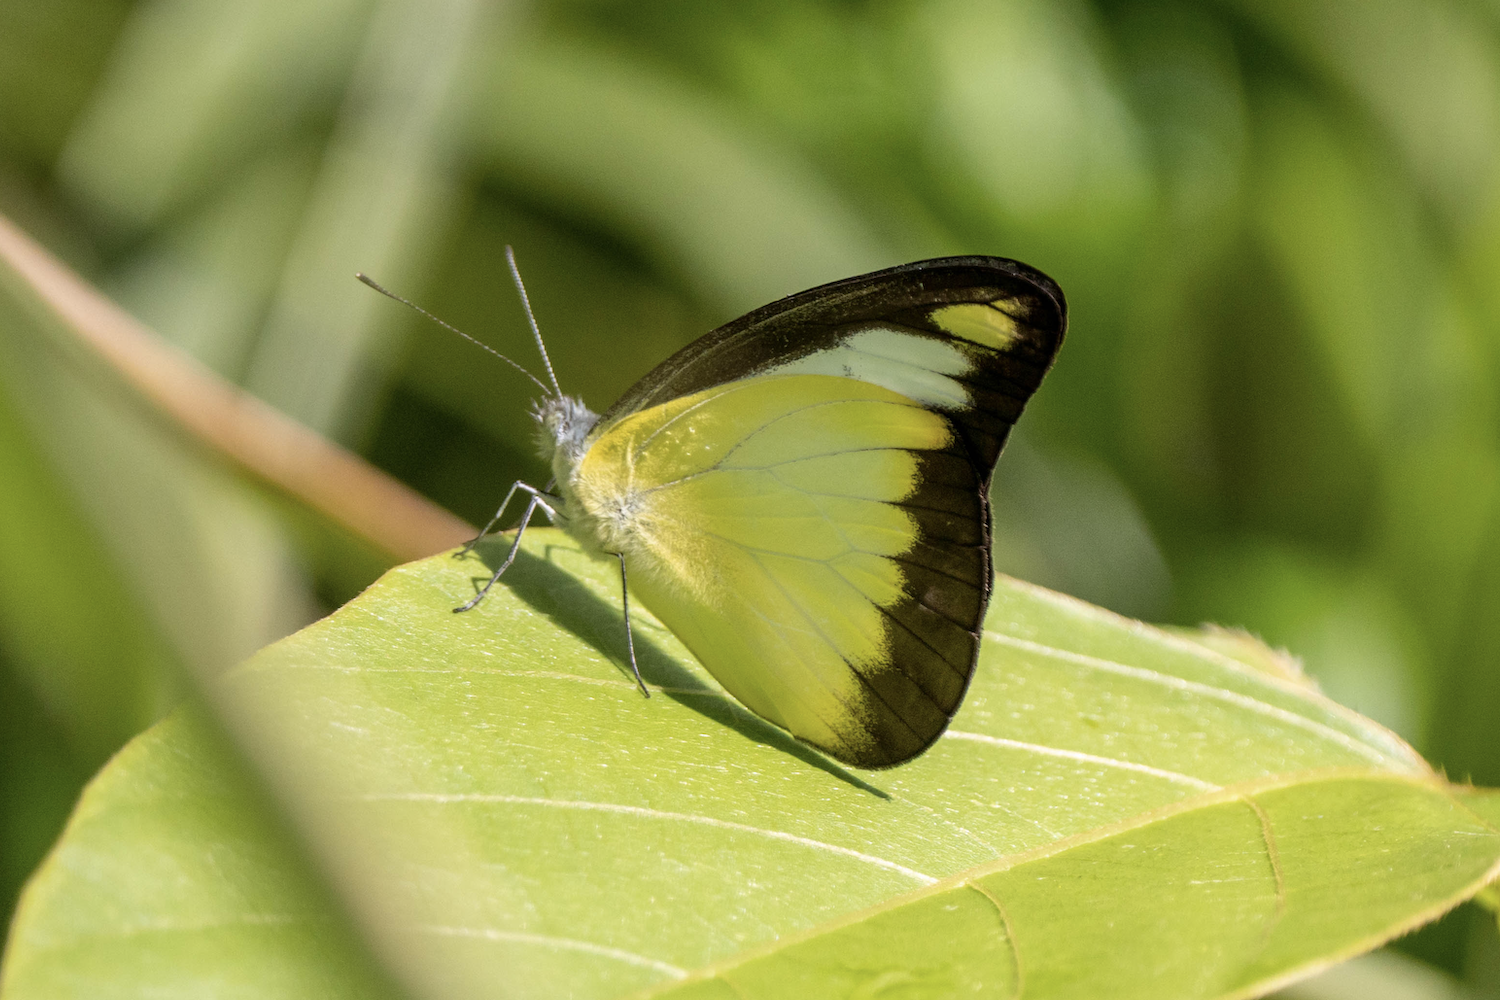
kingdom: Animalia
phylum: Arthropoda
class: Insecta
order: Lepidoptera
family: Pieridae
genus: Appias
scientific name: Appias lyncida
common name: Chocolate albatross
